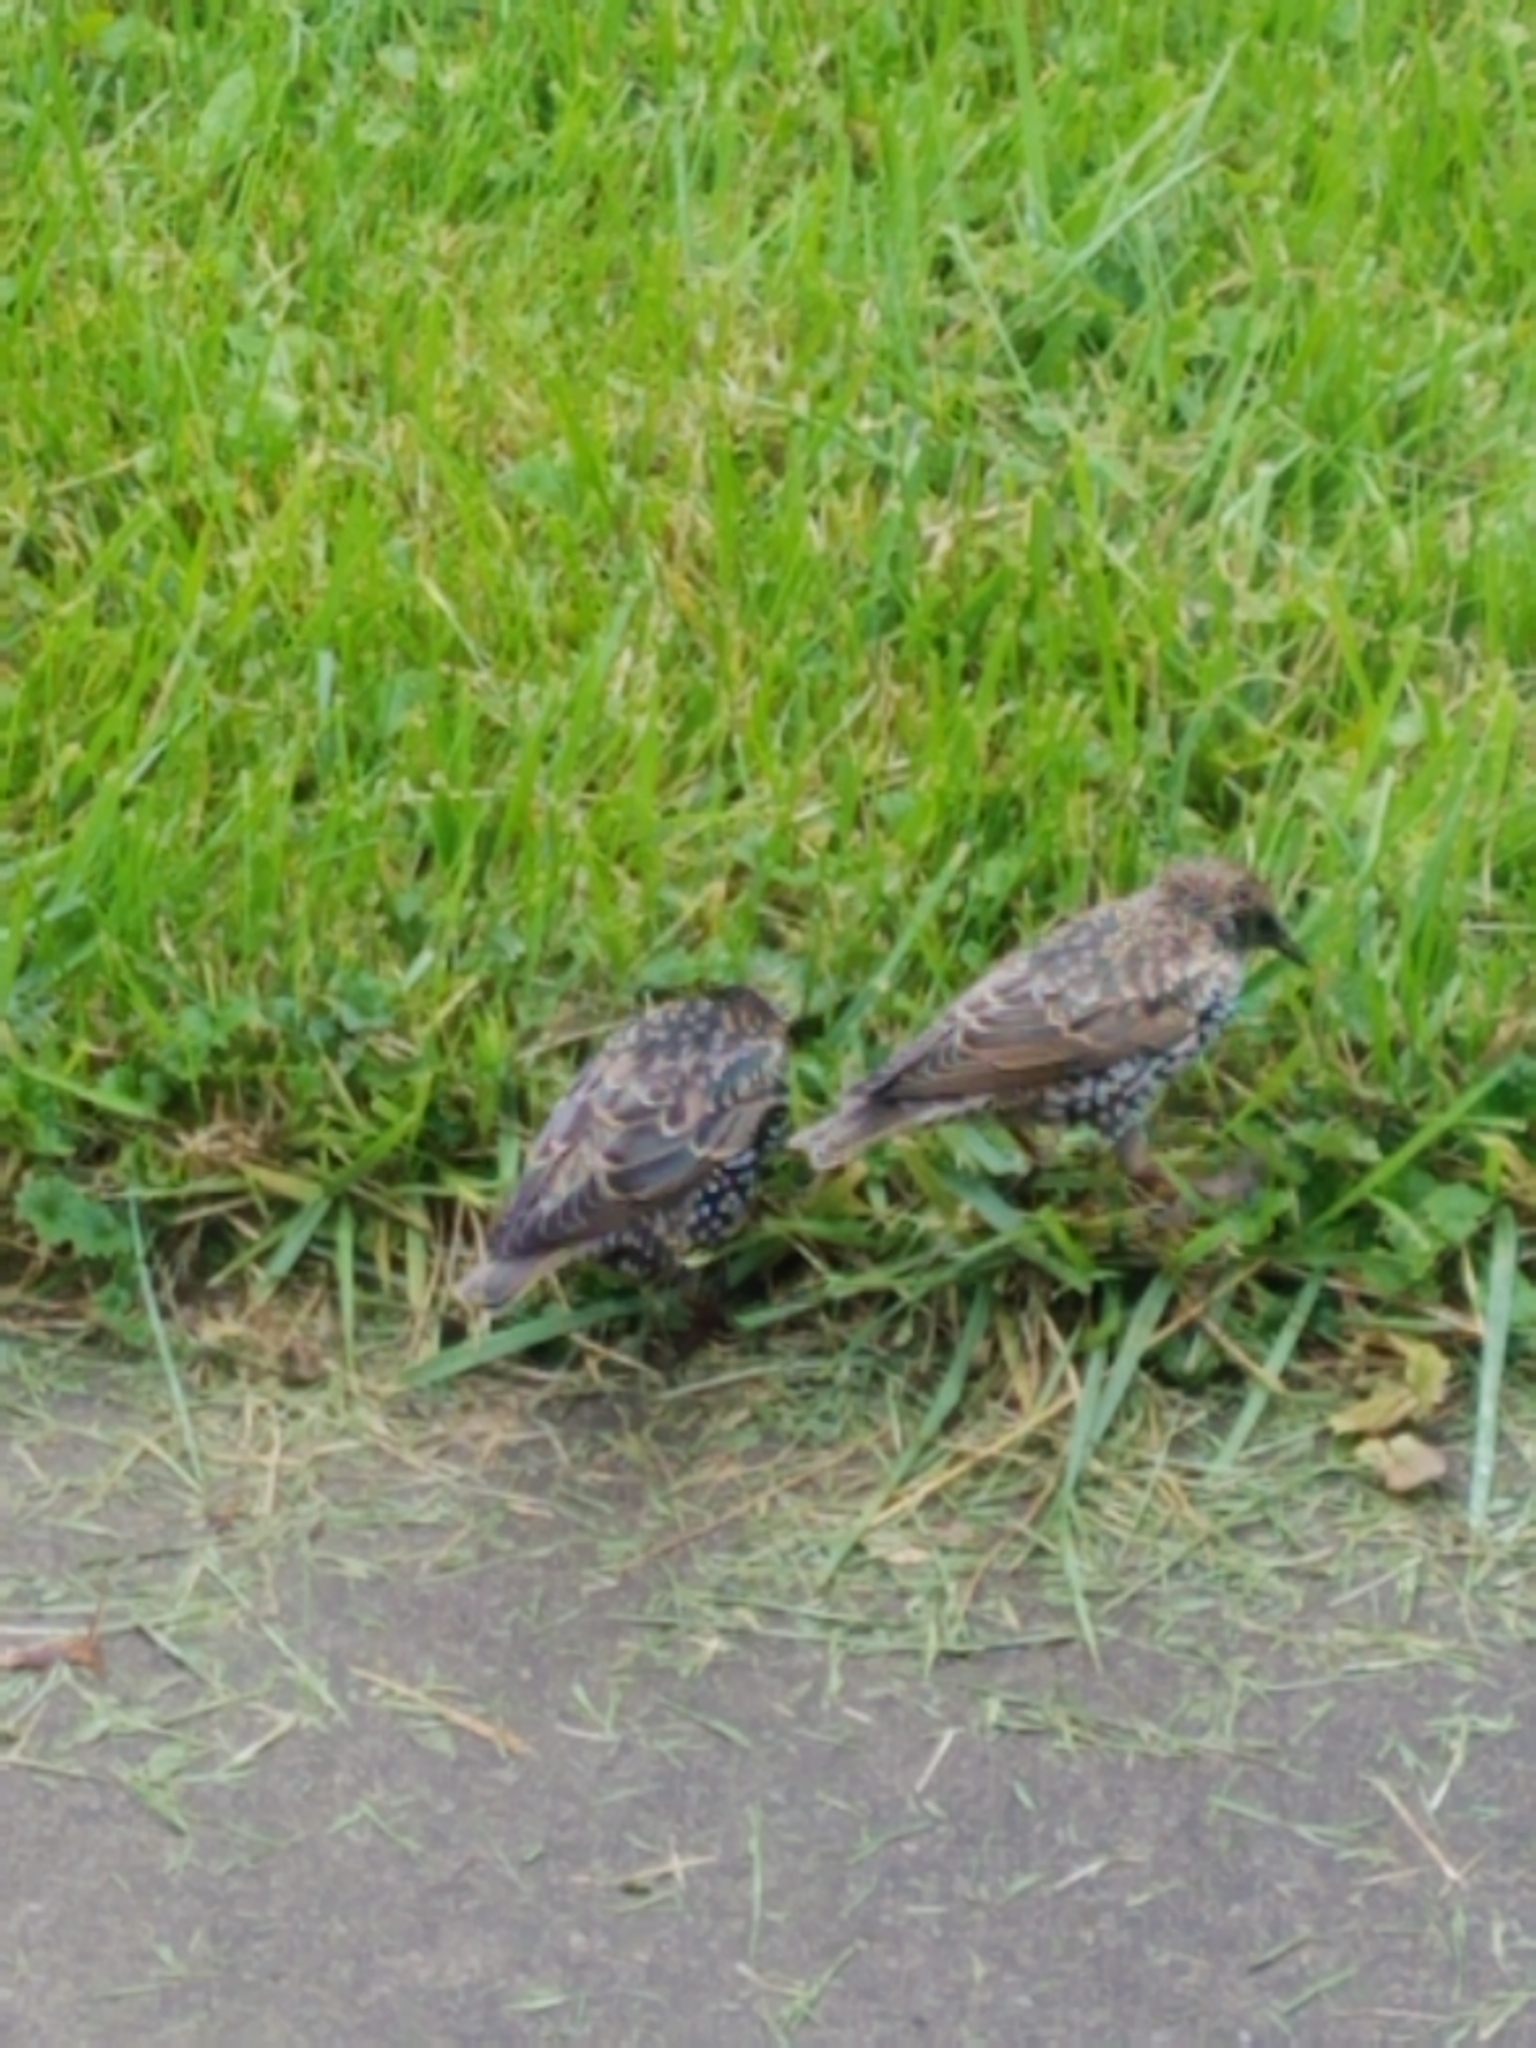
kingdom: Animalia
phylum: Chordata
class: Aves
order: Passeriformes
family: Sturnidae
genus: Sturnus
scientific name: Sturnus vulgaris
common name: Common starling
